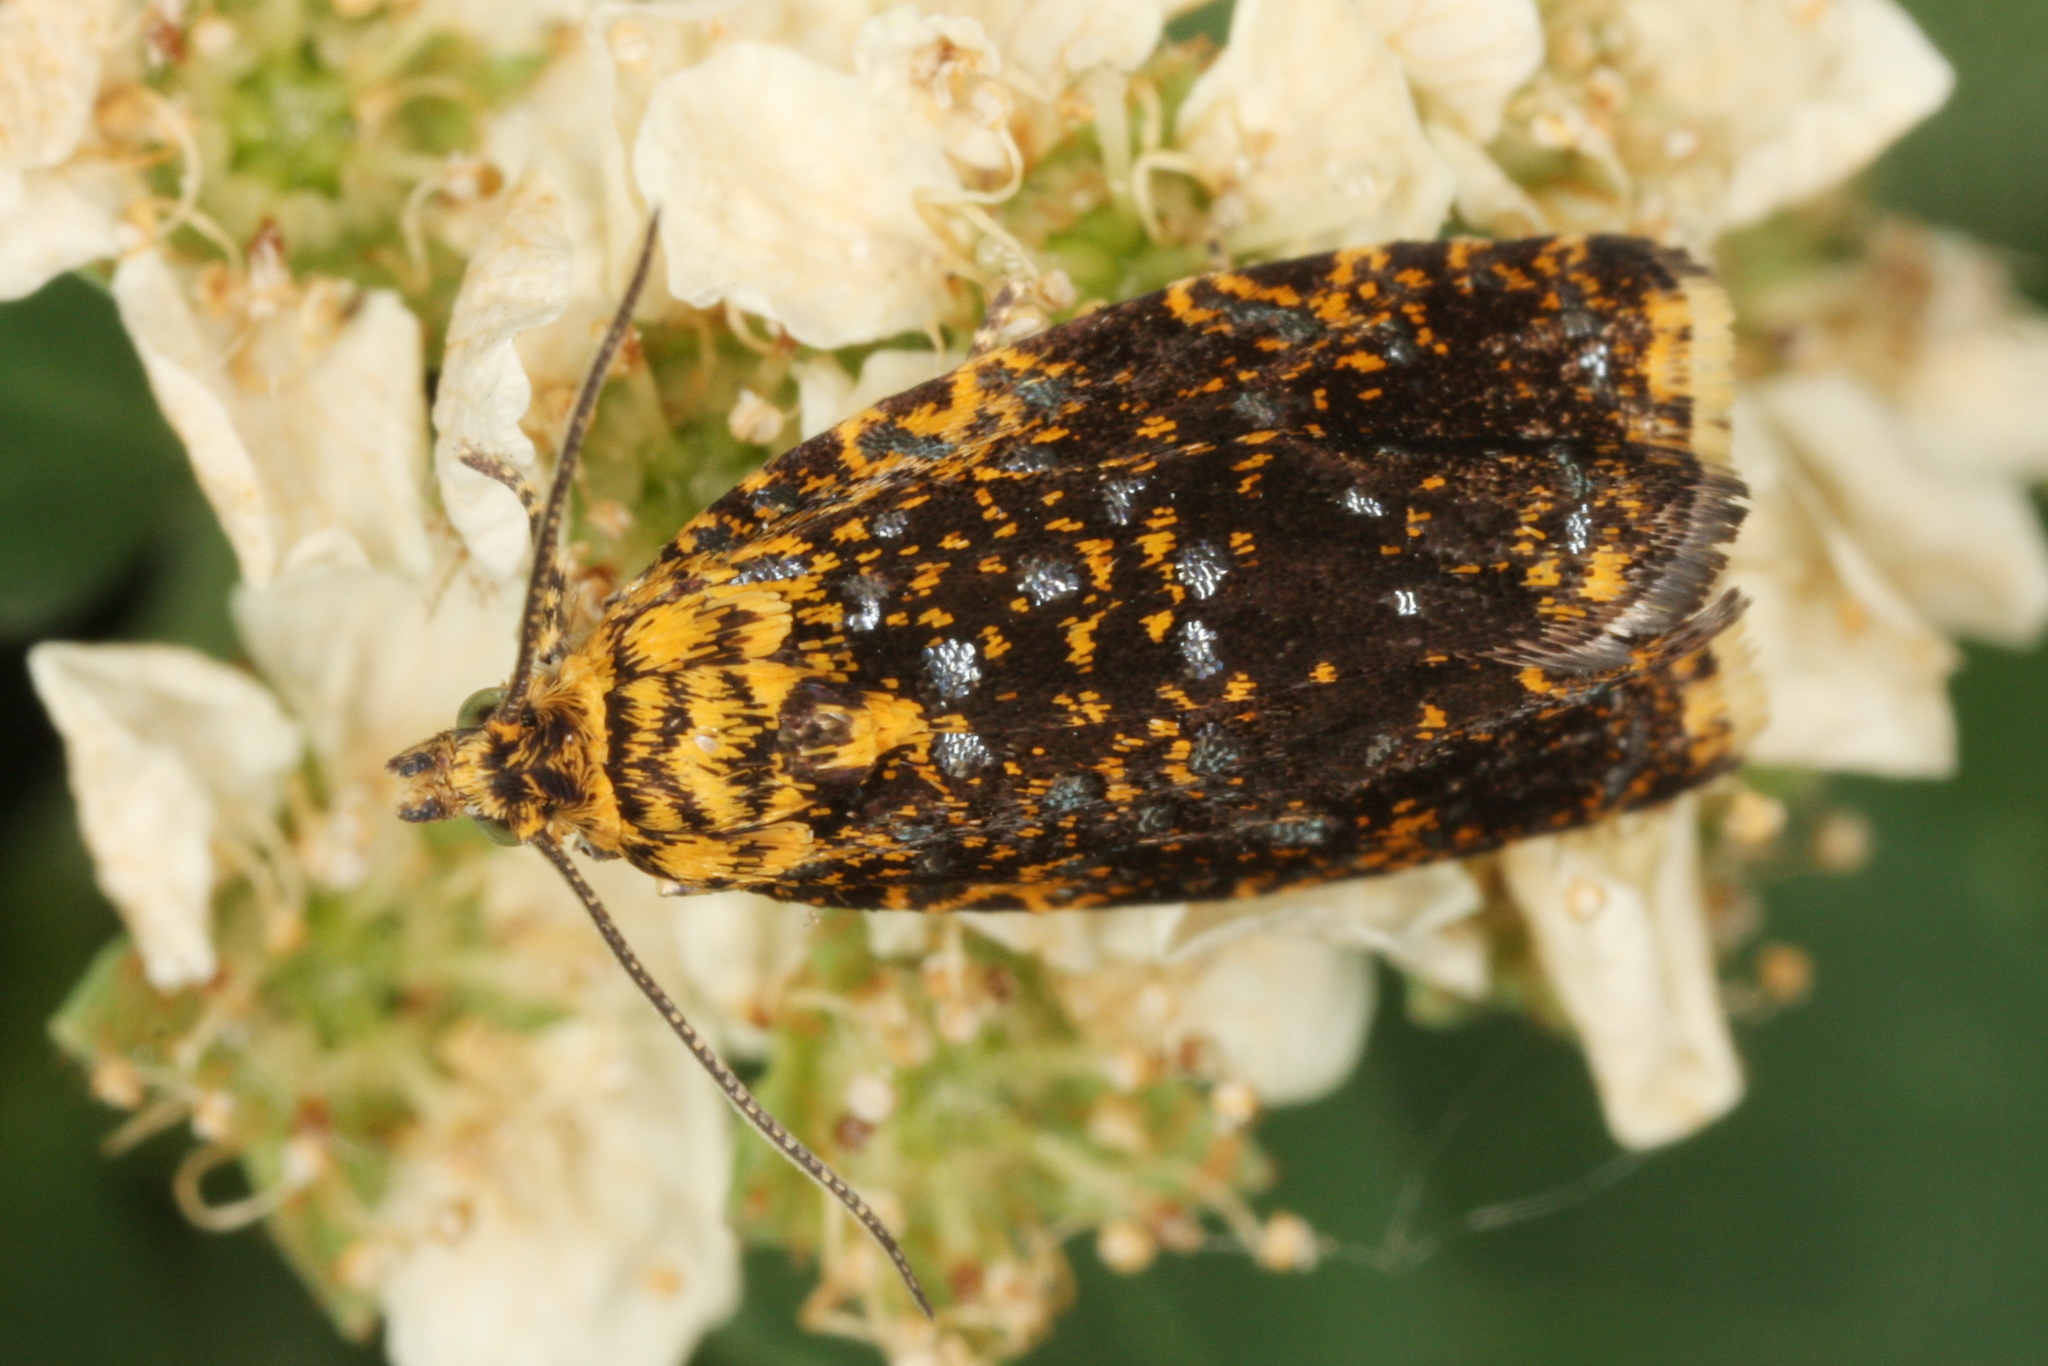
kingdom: Animalia
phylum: Arthropoda
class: Insecta
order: Lepidoptera
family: Tortricidae
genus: Phiaris
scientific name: Phiaris siderana
